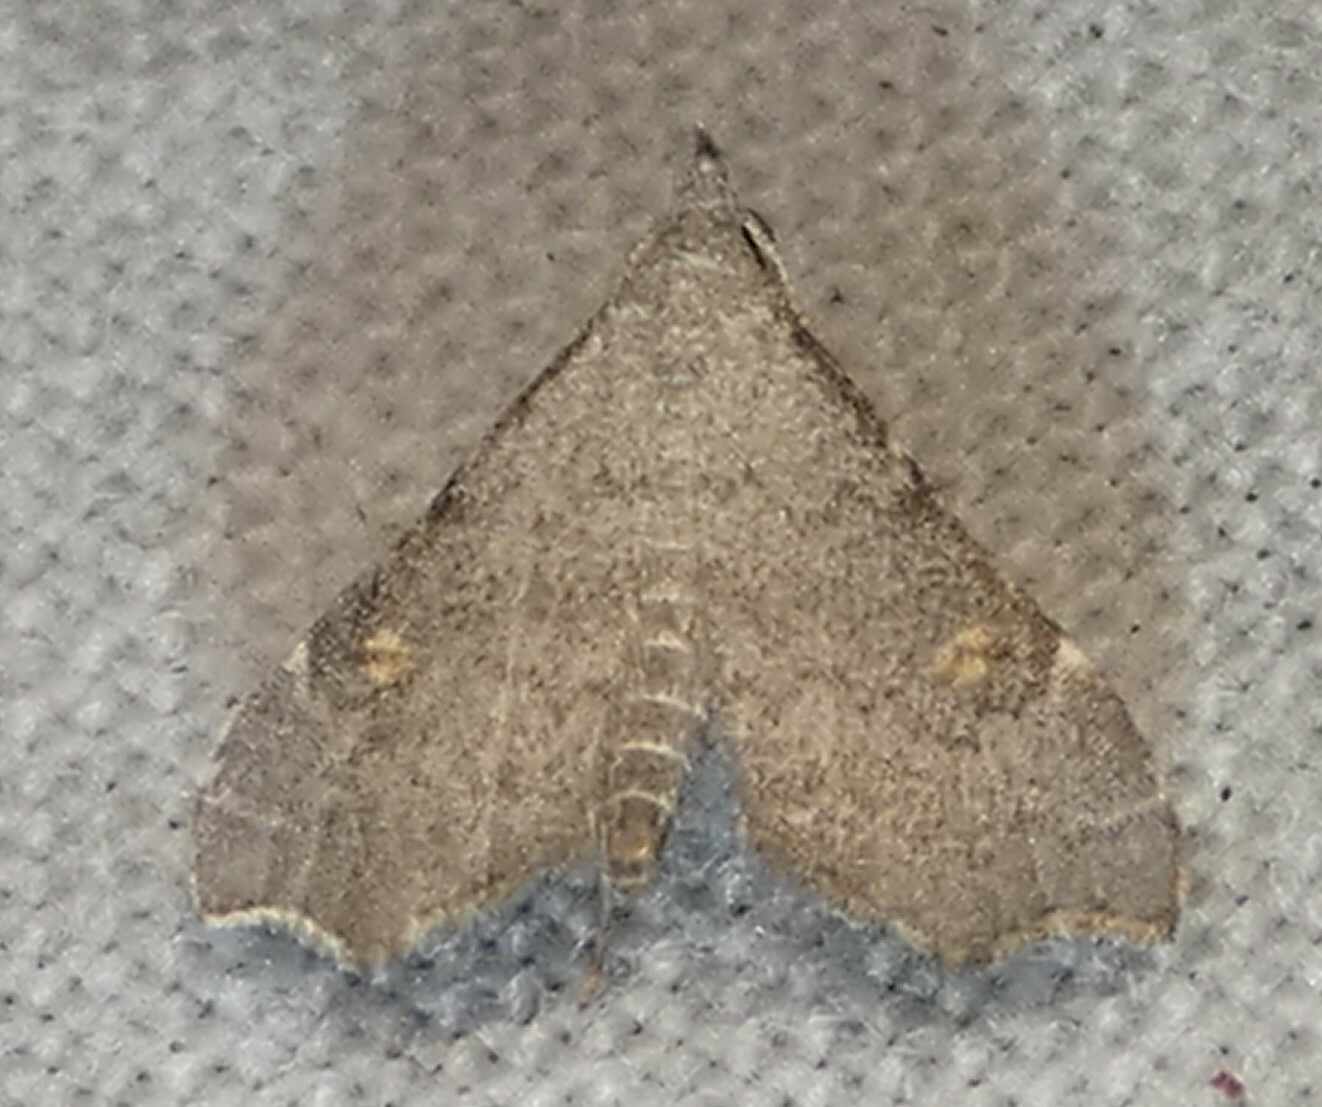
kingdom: Animalia
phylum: Arthropoda
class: Insecta
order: Lepidoptera
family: Erebidae
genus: Redectis
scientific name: Redectis pygmaea
